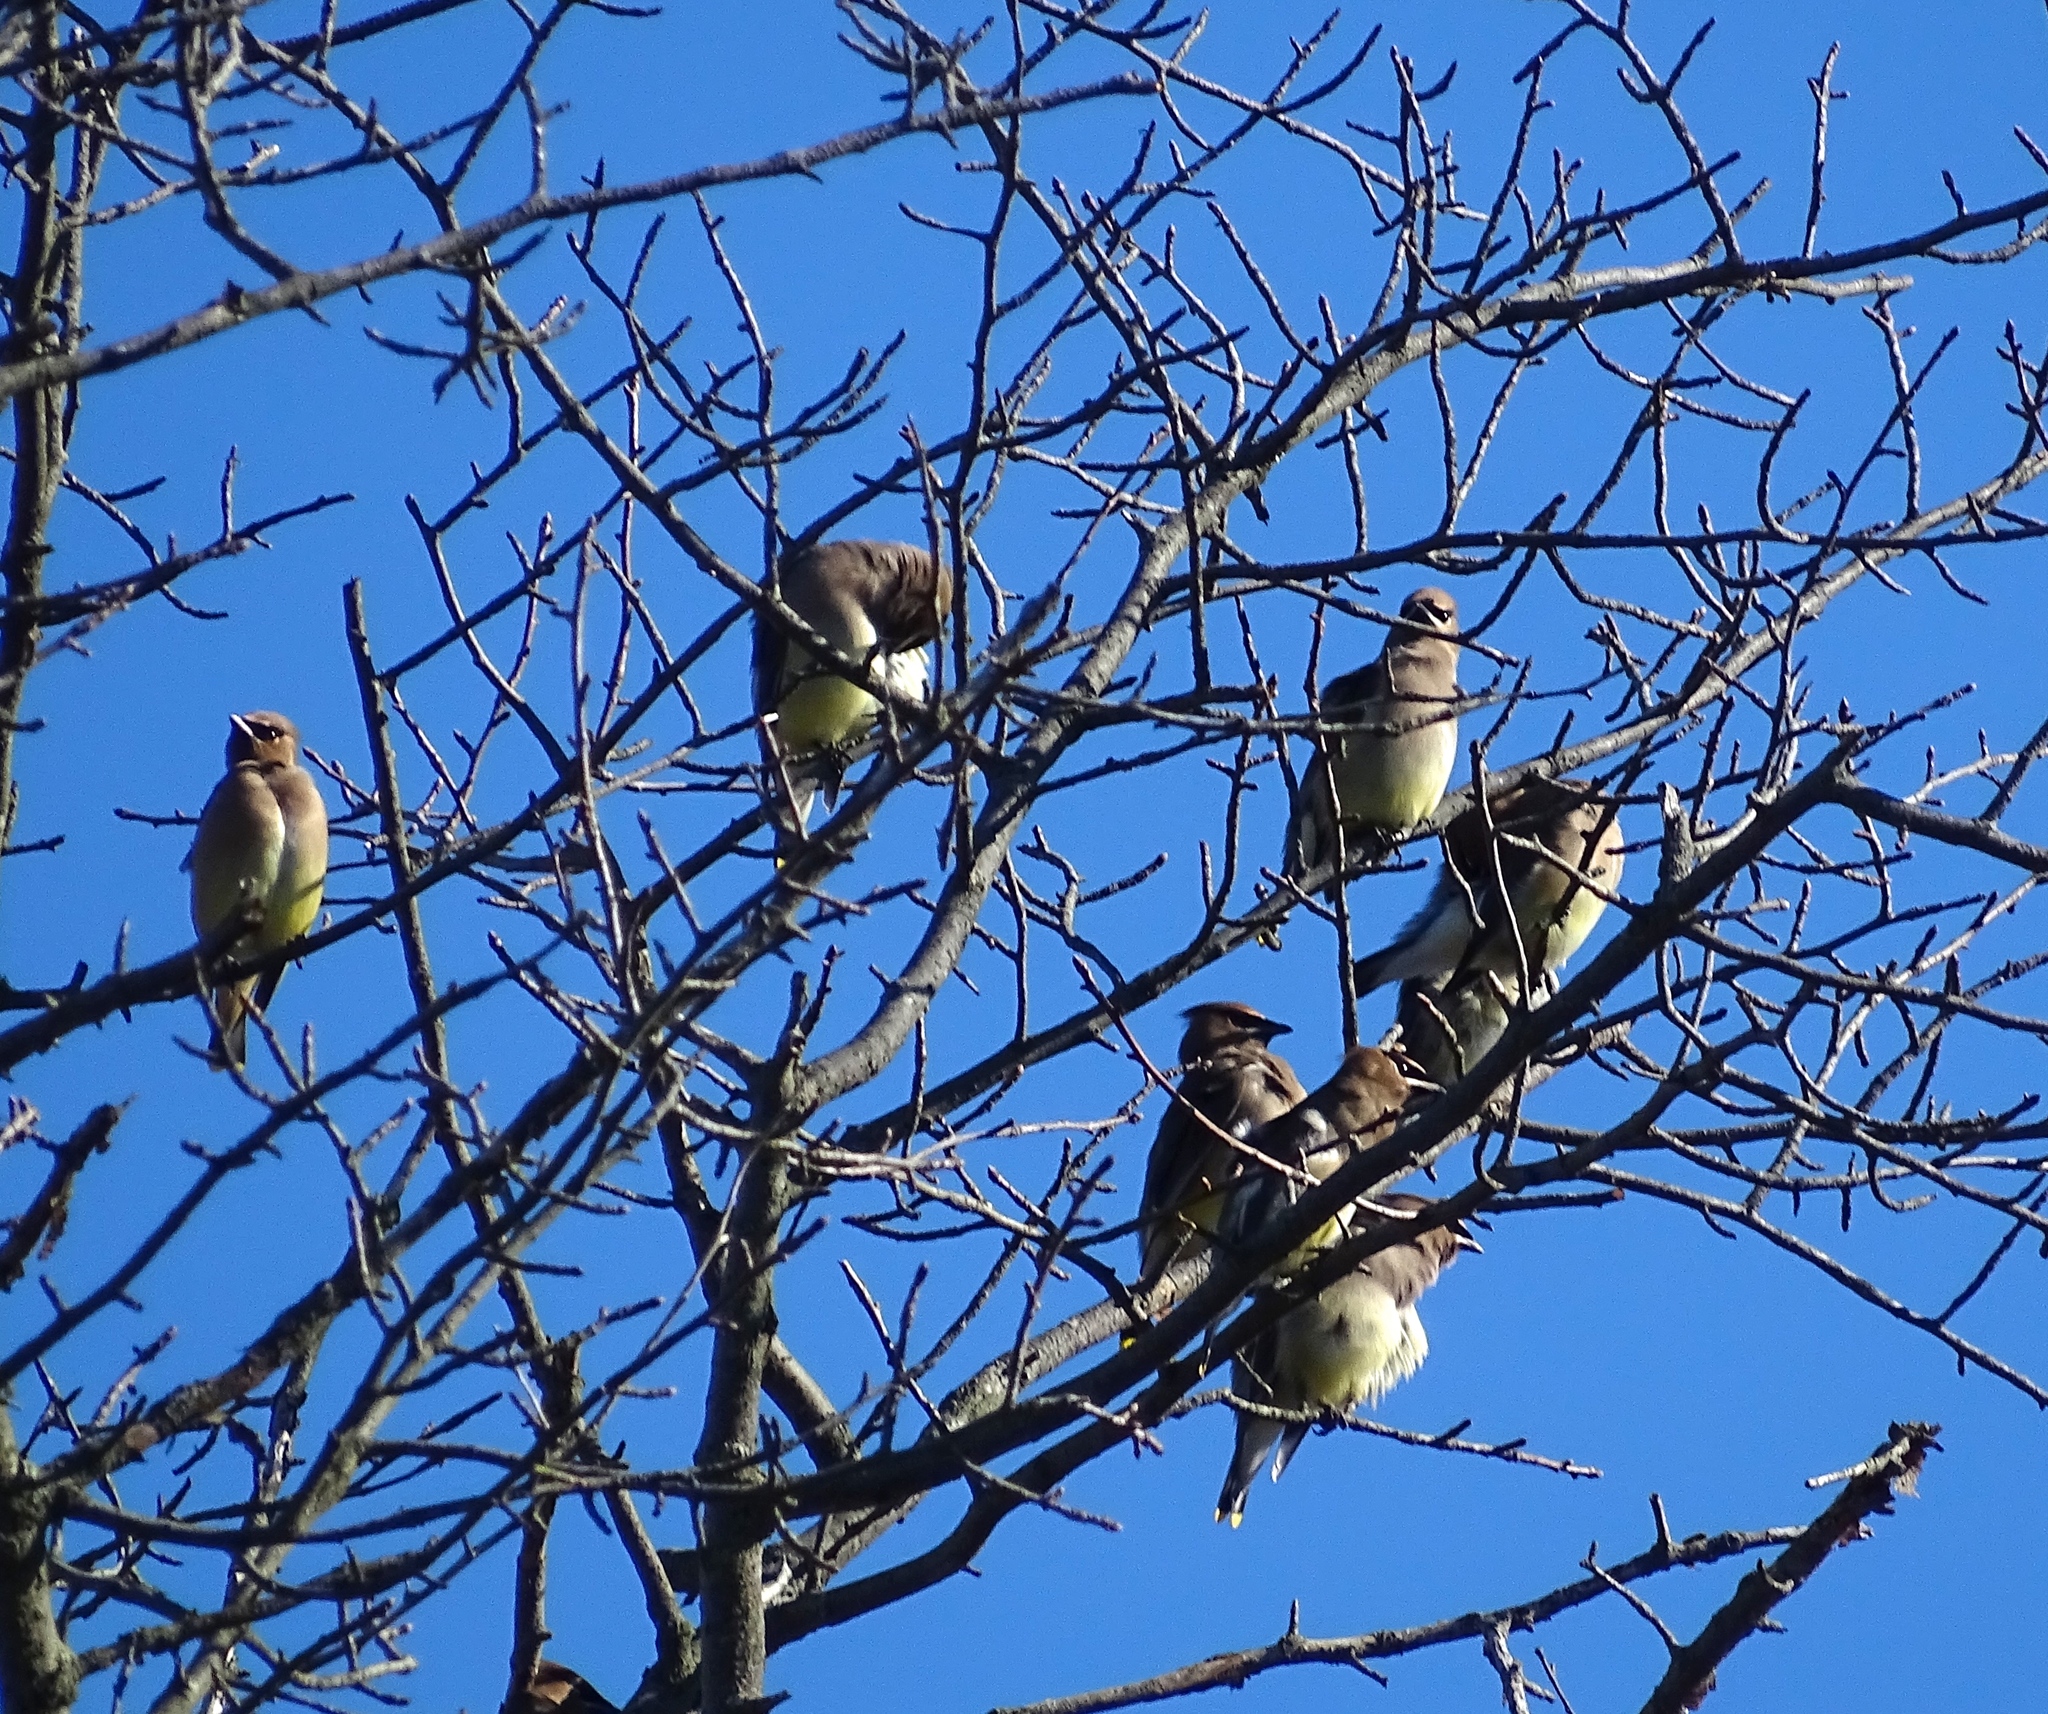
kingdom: Animalia
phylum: Chordata
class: Aves
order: Passeriformes
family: Bombycillidae
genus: Bombycilla
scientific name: Bombycilla cedrorum
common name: Cedar waxwing
